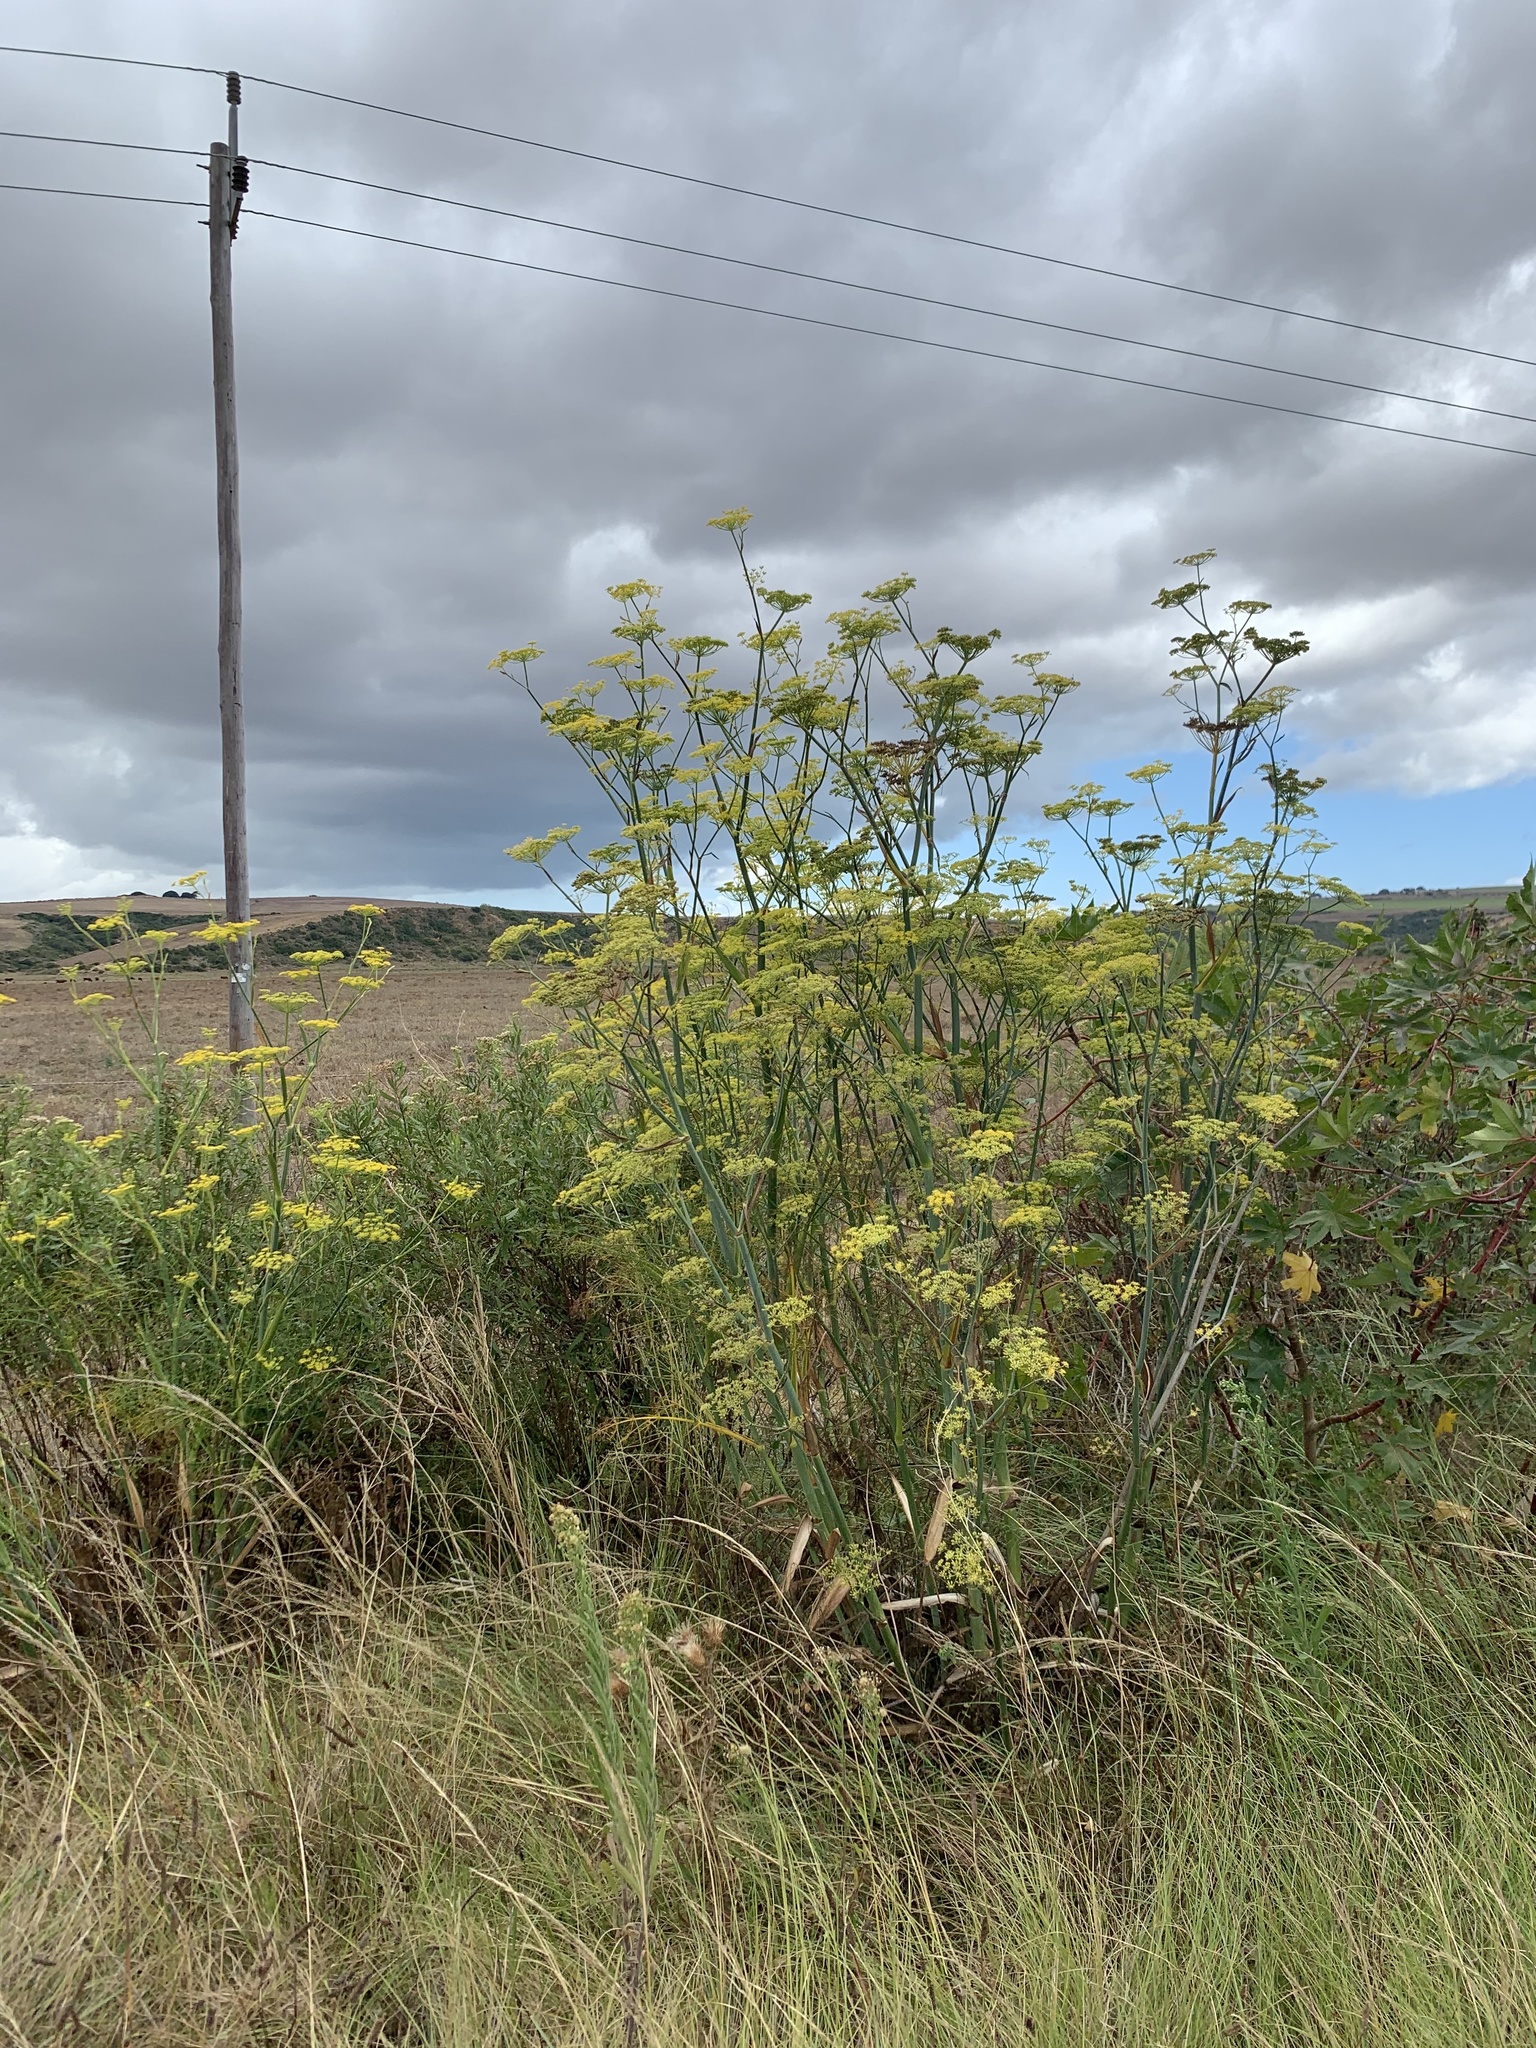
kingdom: Plantae
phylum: Tracheophyta
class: Magnoliopsida
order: Apiales
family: Apiaceae
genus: Foeniculum
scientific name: Foeniculum vulgare
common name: Fennel
